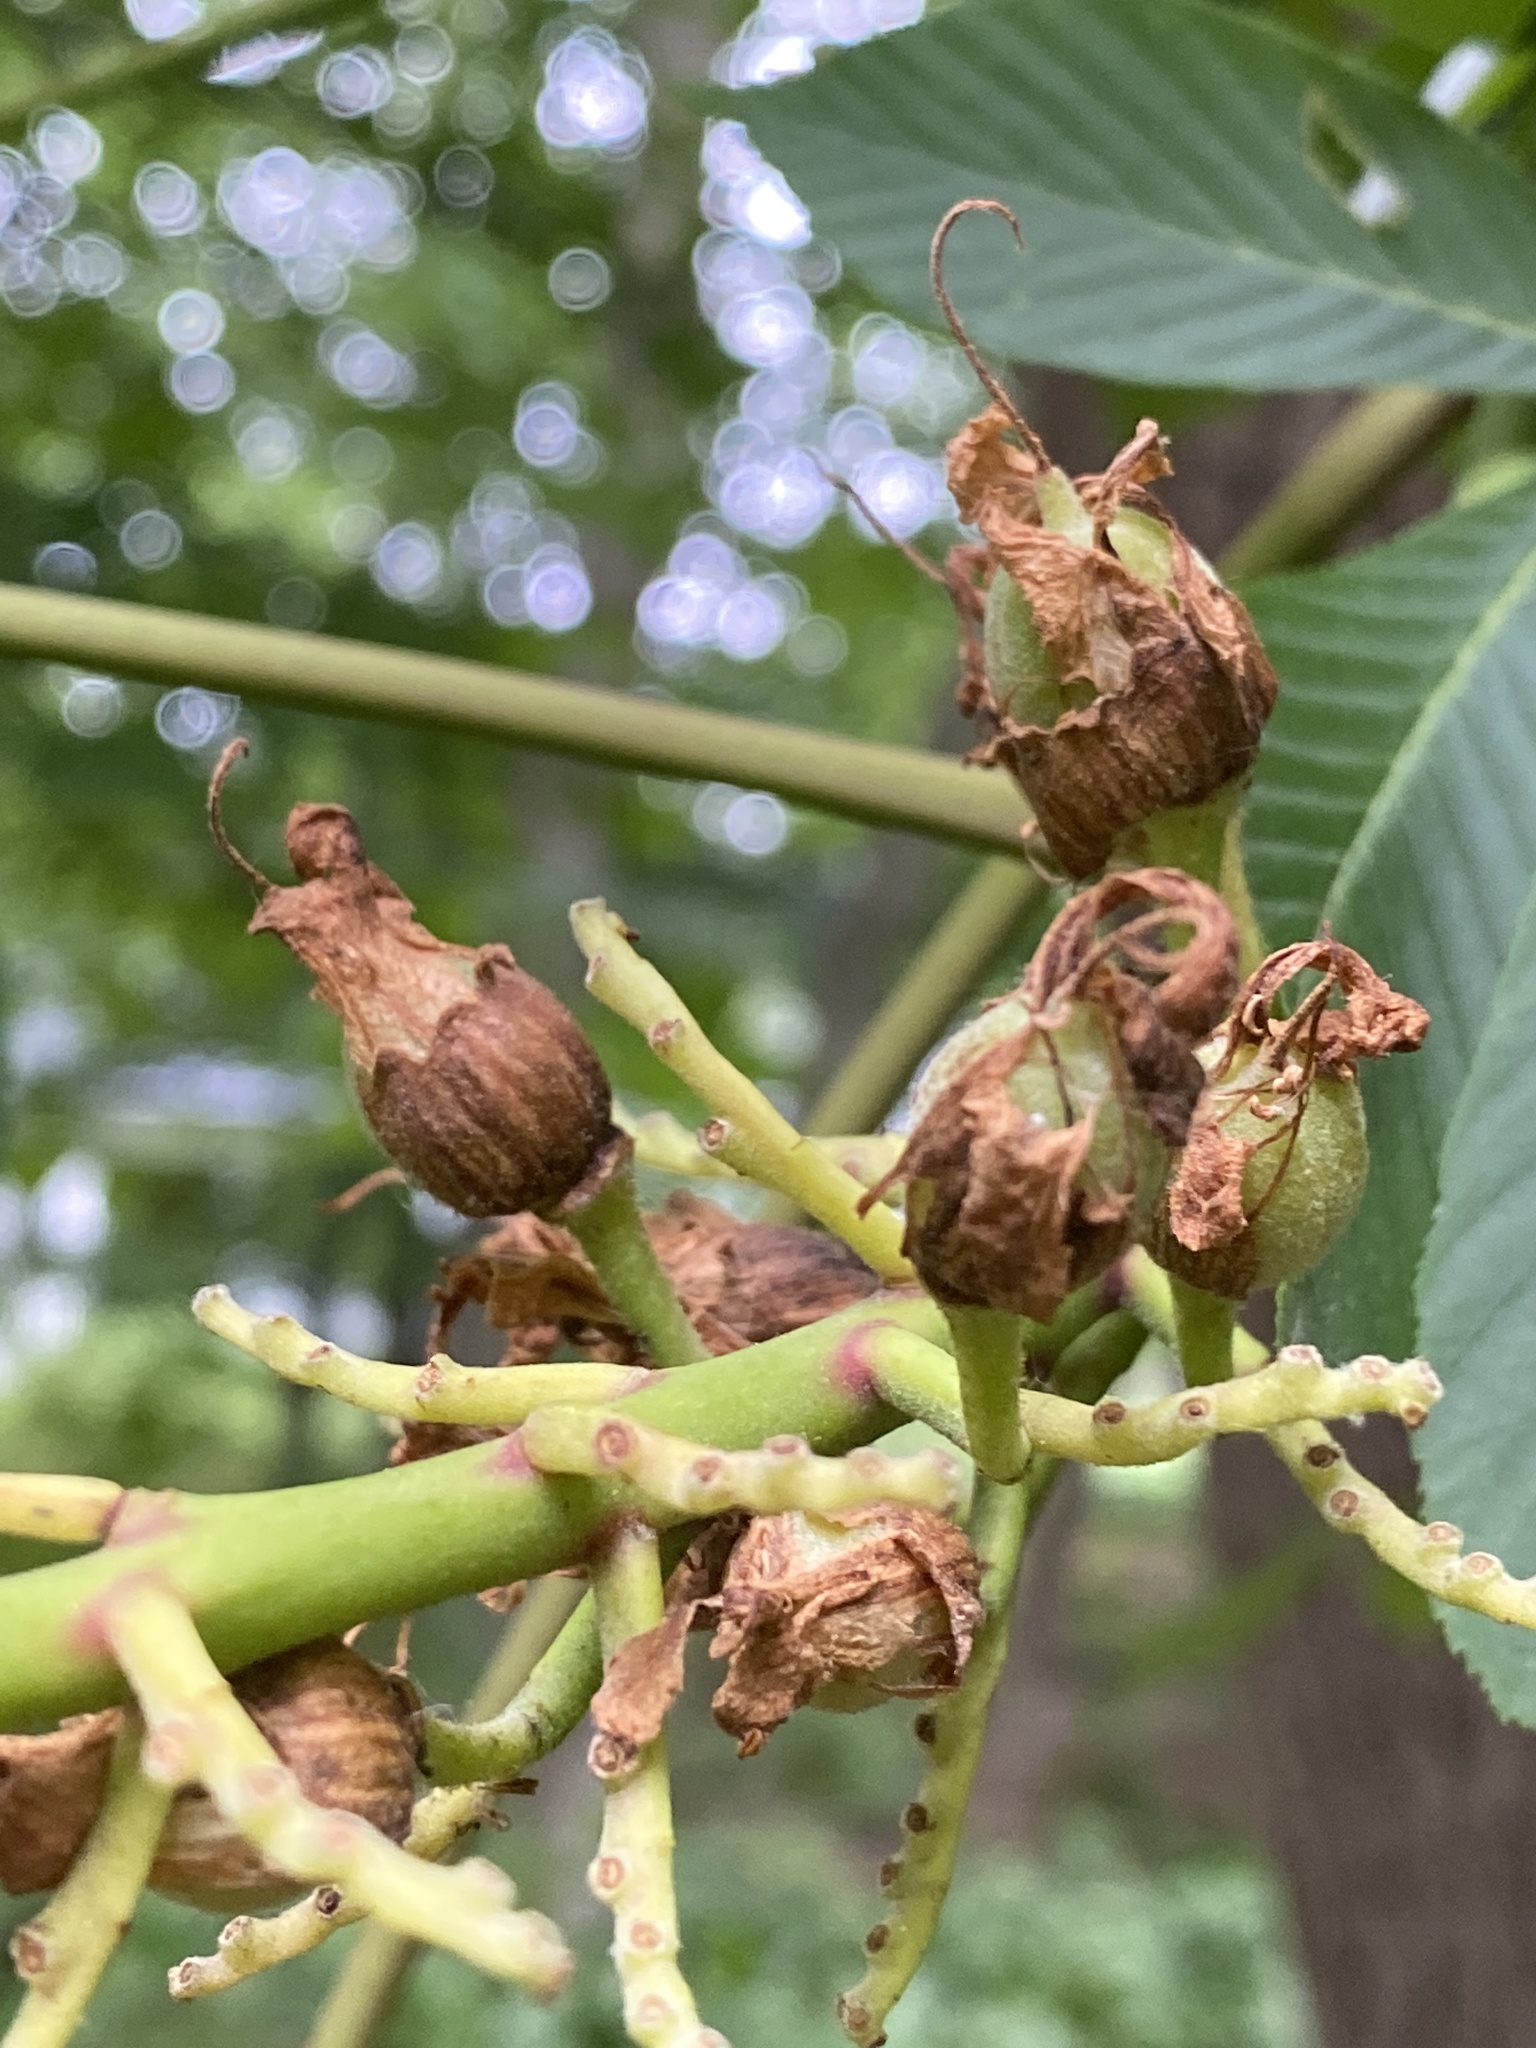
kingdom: Plantae
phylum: Tracheophyta
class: Magnoliopsida
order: Sapindales
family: Sapindaceae
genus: Aesculus
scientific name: Aesculus flava
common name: Yellow buckeye
